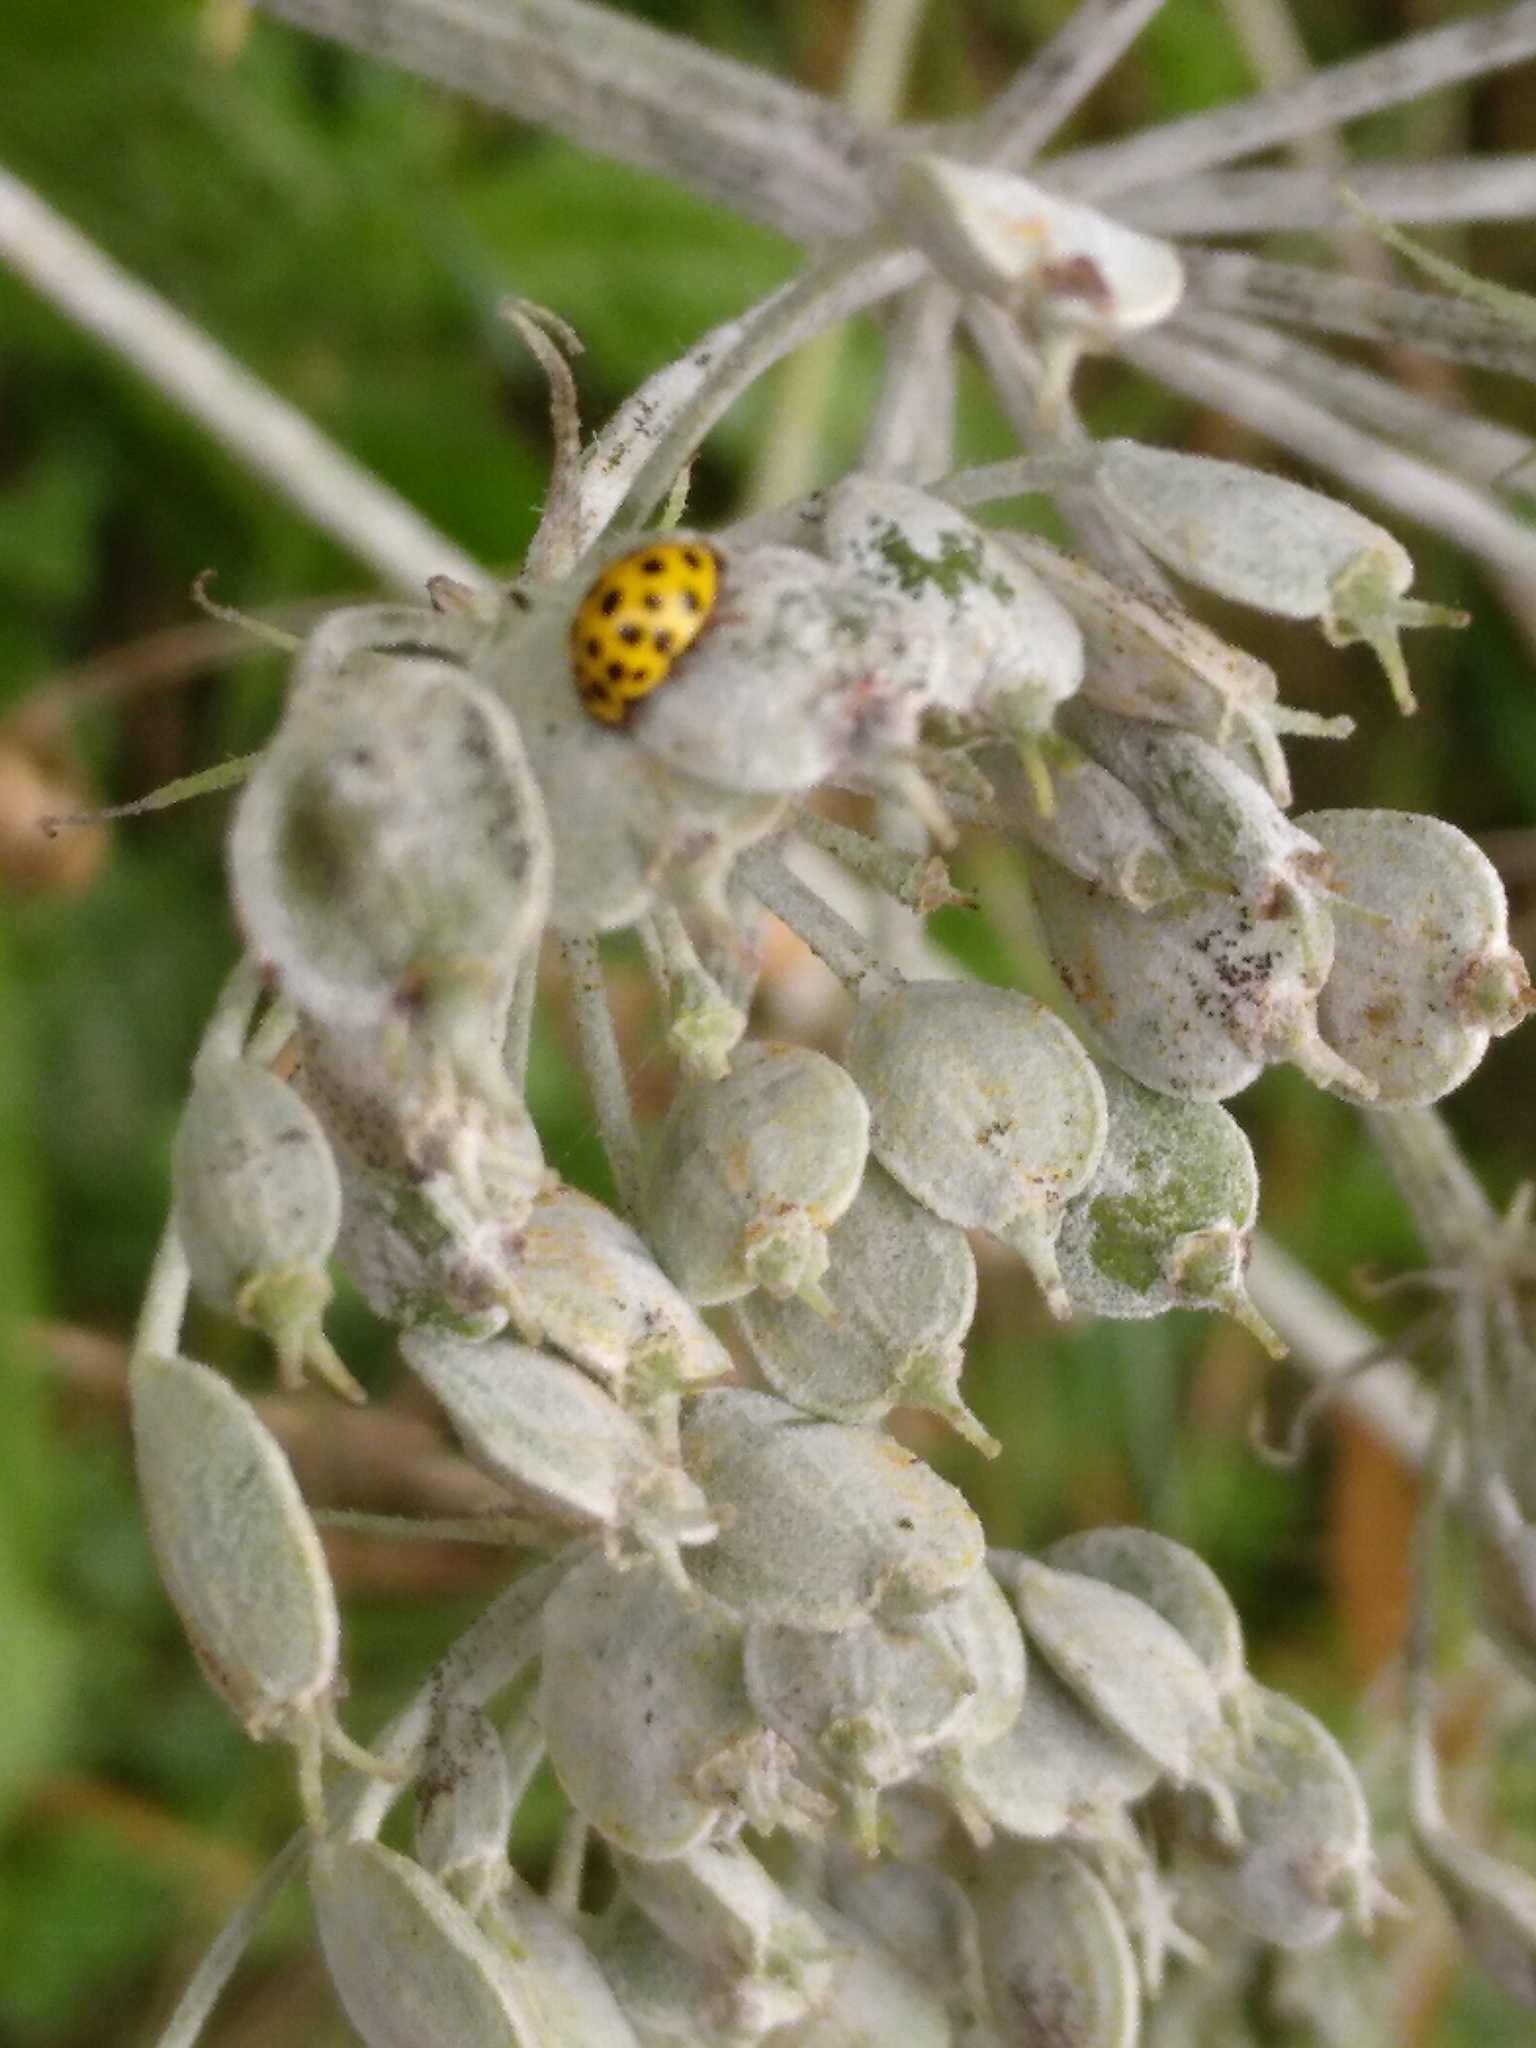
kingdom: Animalia
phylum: Arthropoda
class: Insecta
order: Coleoptera
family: Coccinellidae
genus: Psyllobora
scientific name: Psyllobora vigintiduopunctata
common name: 22-spot ladybird
